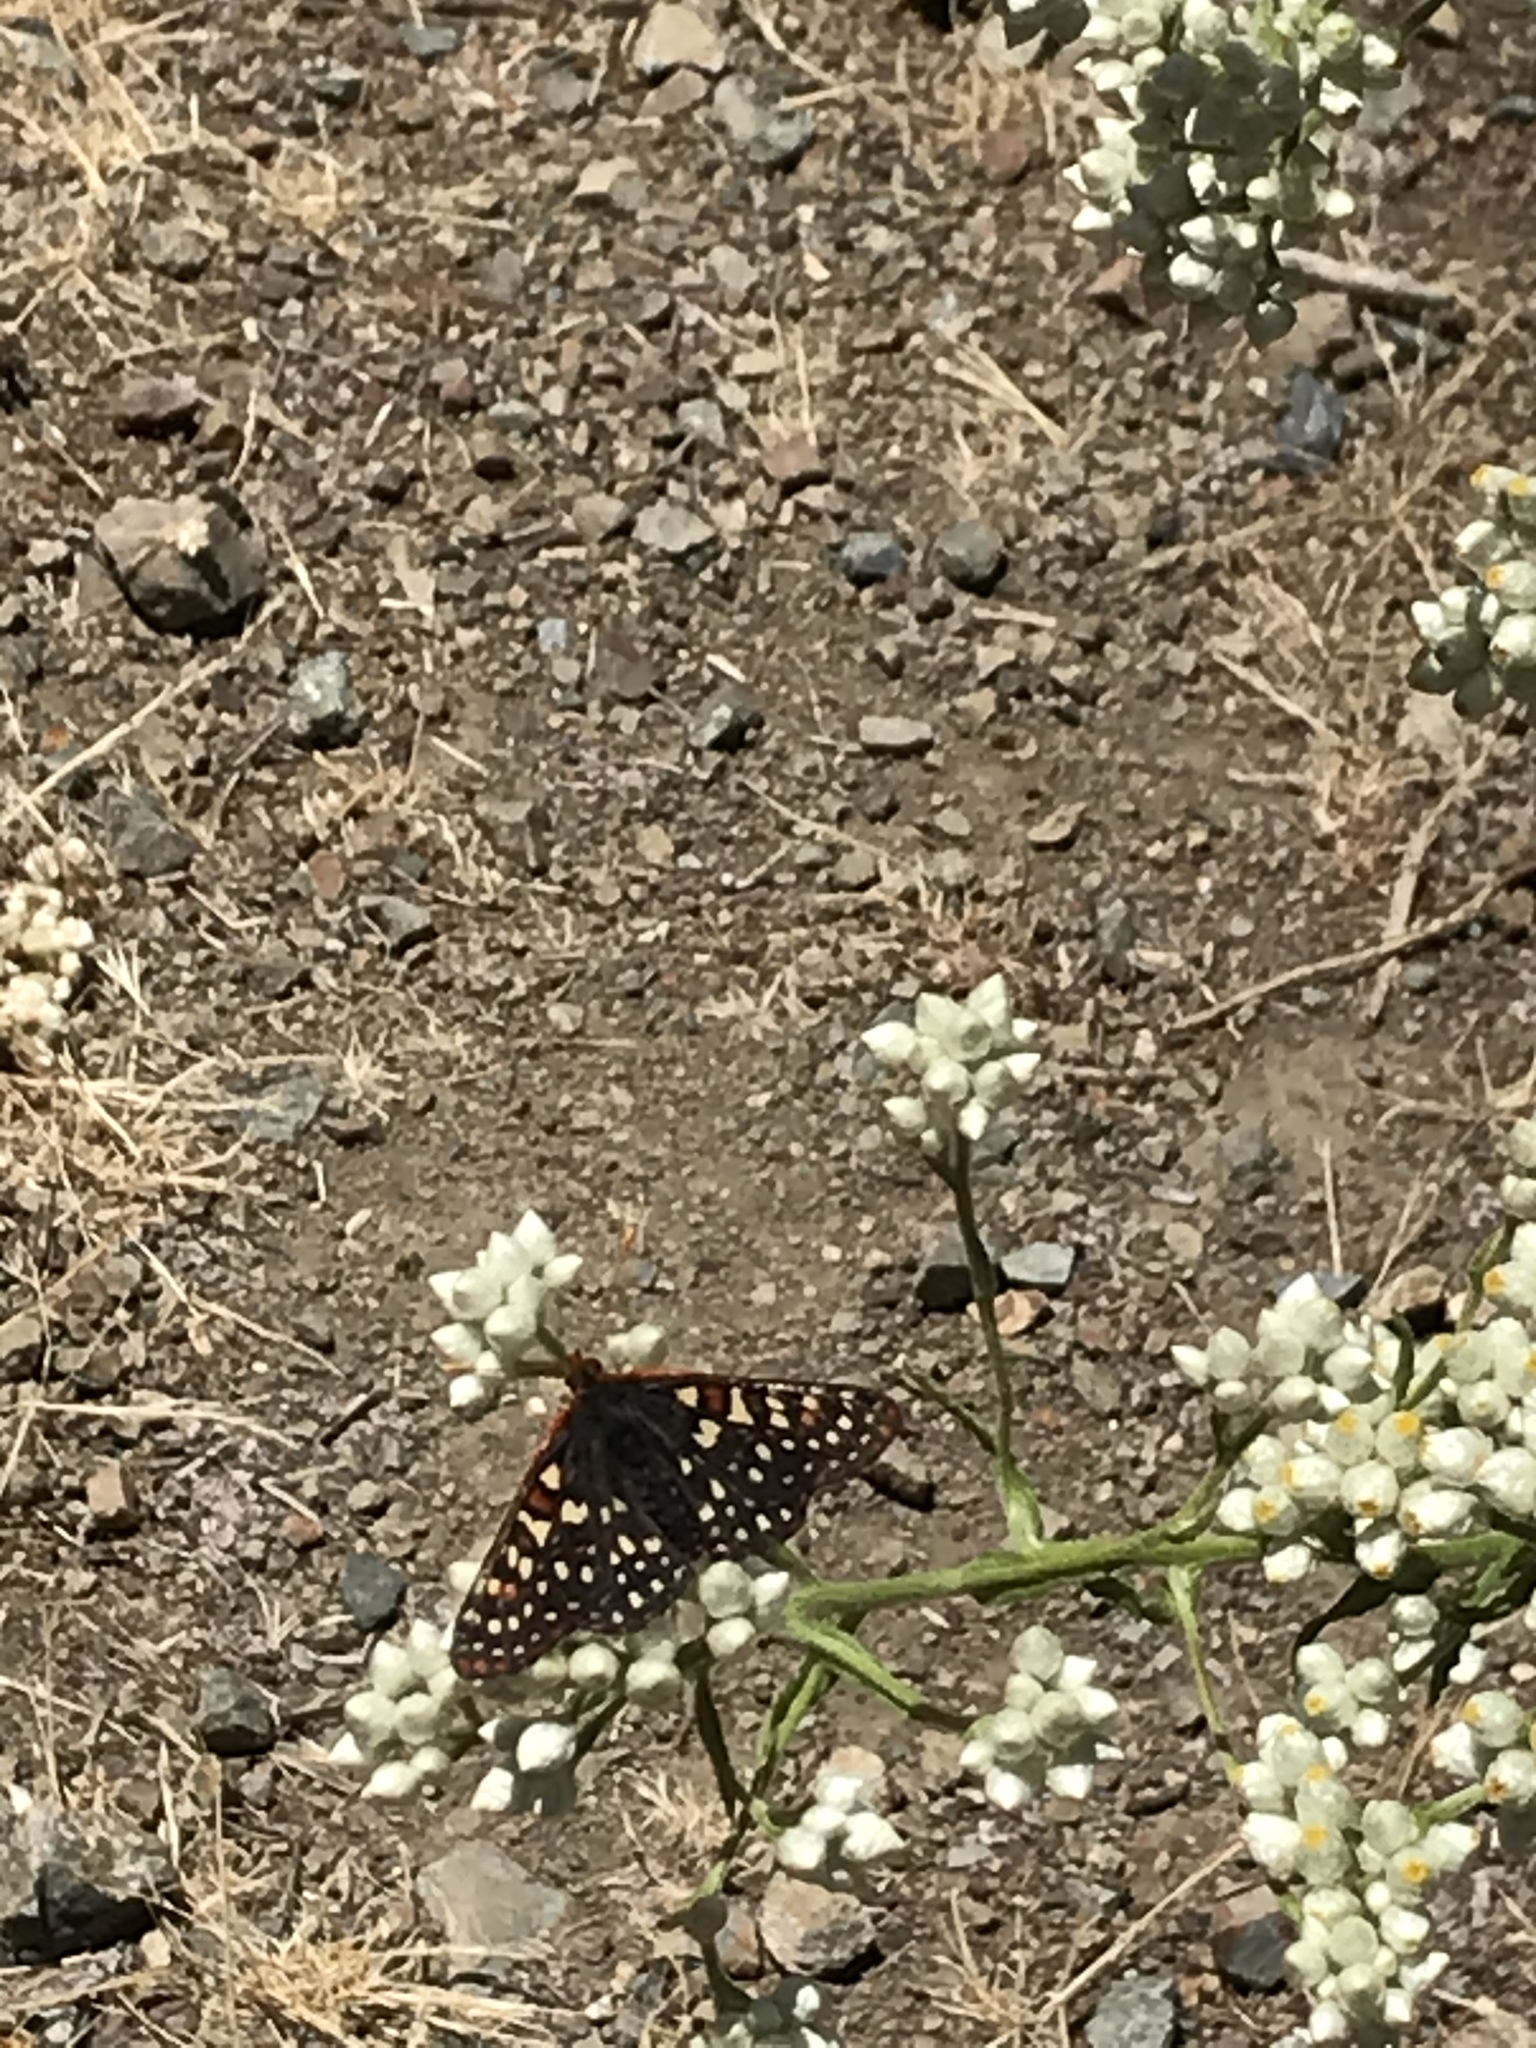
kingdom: Animalia
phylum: Arthropoda
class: Insecta
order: Lepidoptera
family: Nymphalidae
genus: Occidryas
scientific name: Occidryas chalcedona
